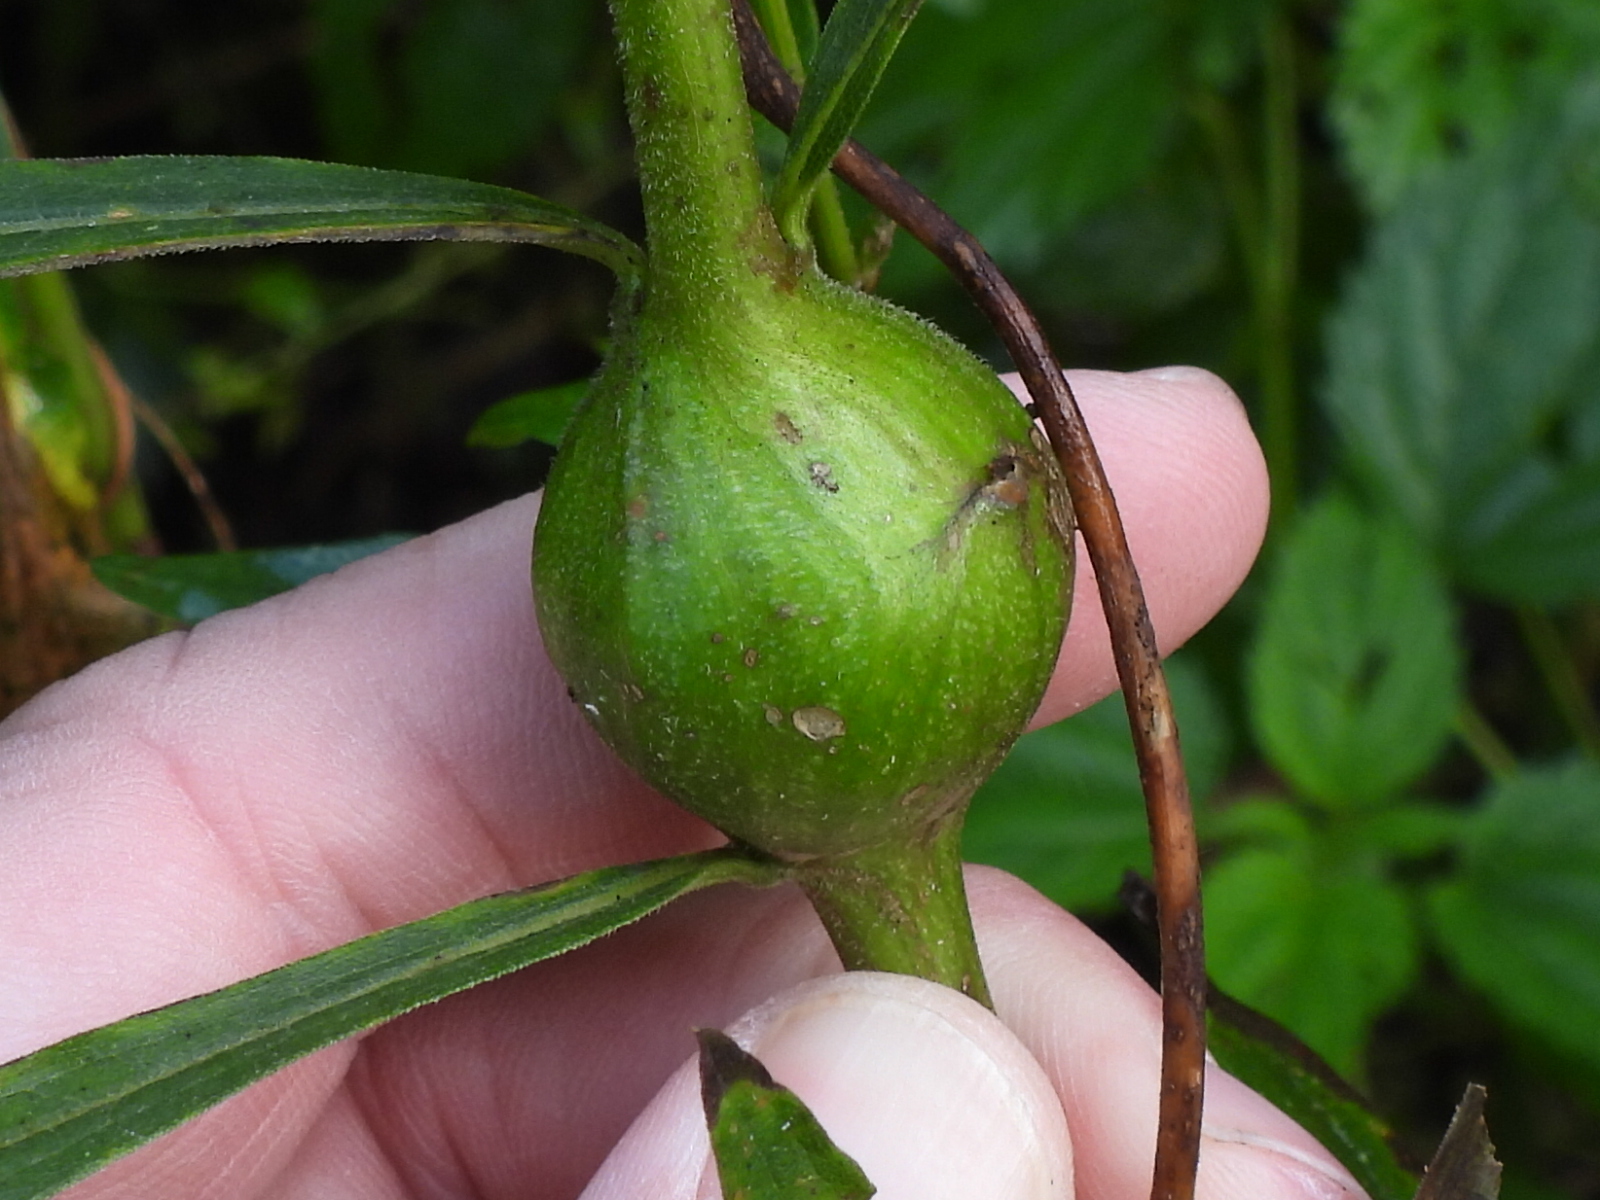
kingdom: Animalia
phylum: Arthropoda
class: Insecta
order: Diptera
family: Tephritidae
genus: Eurosta
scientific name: Eurosta solidaginis
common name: Goldenrod gall fly
